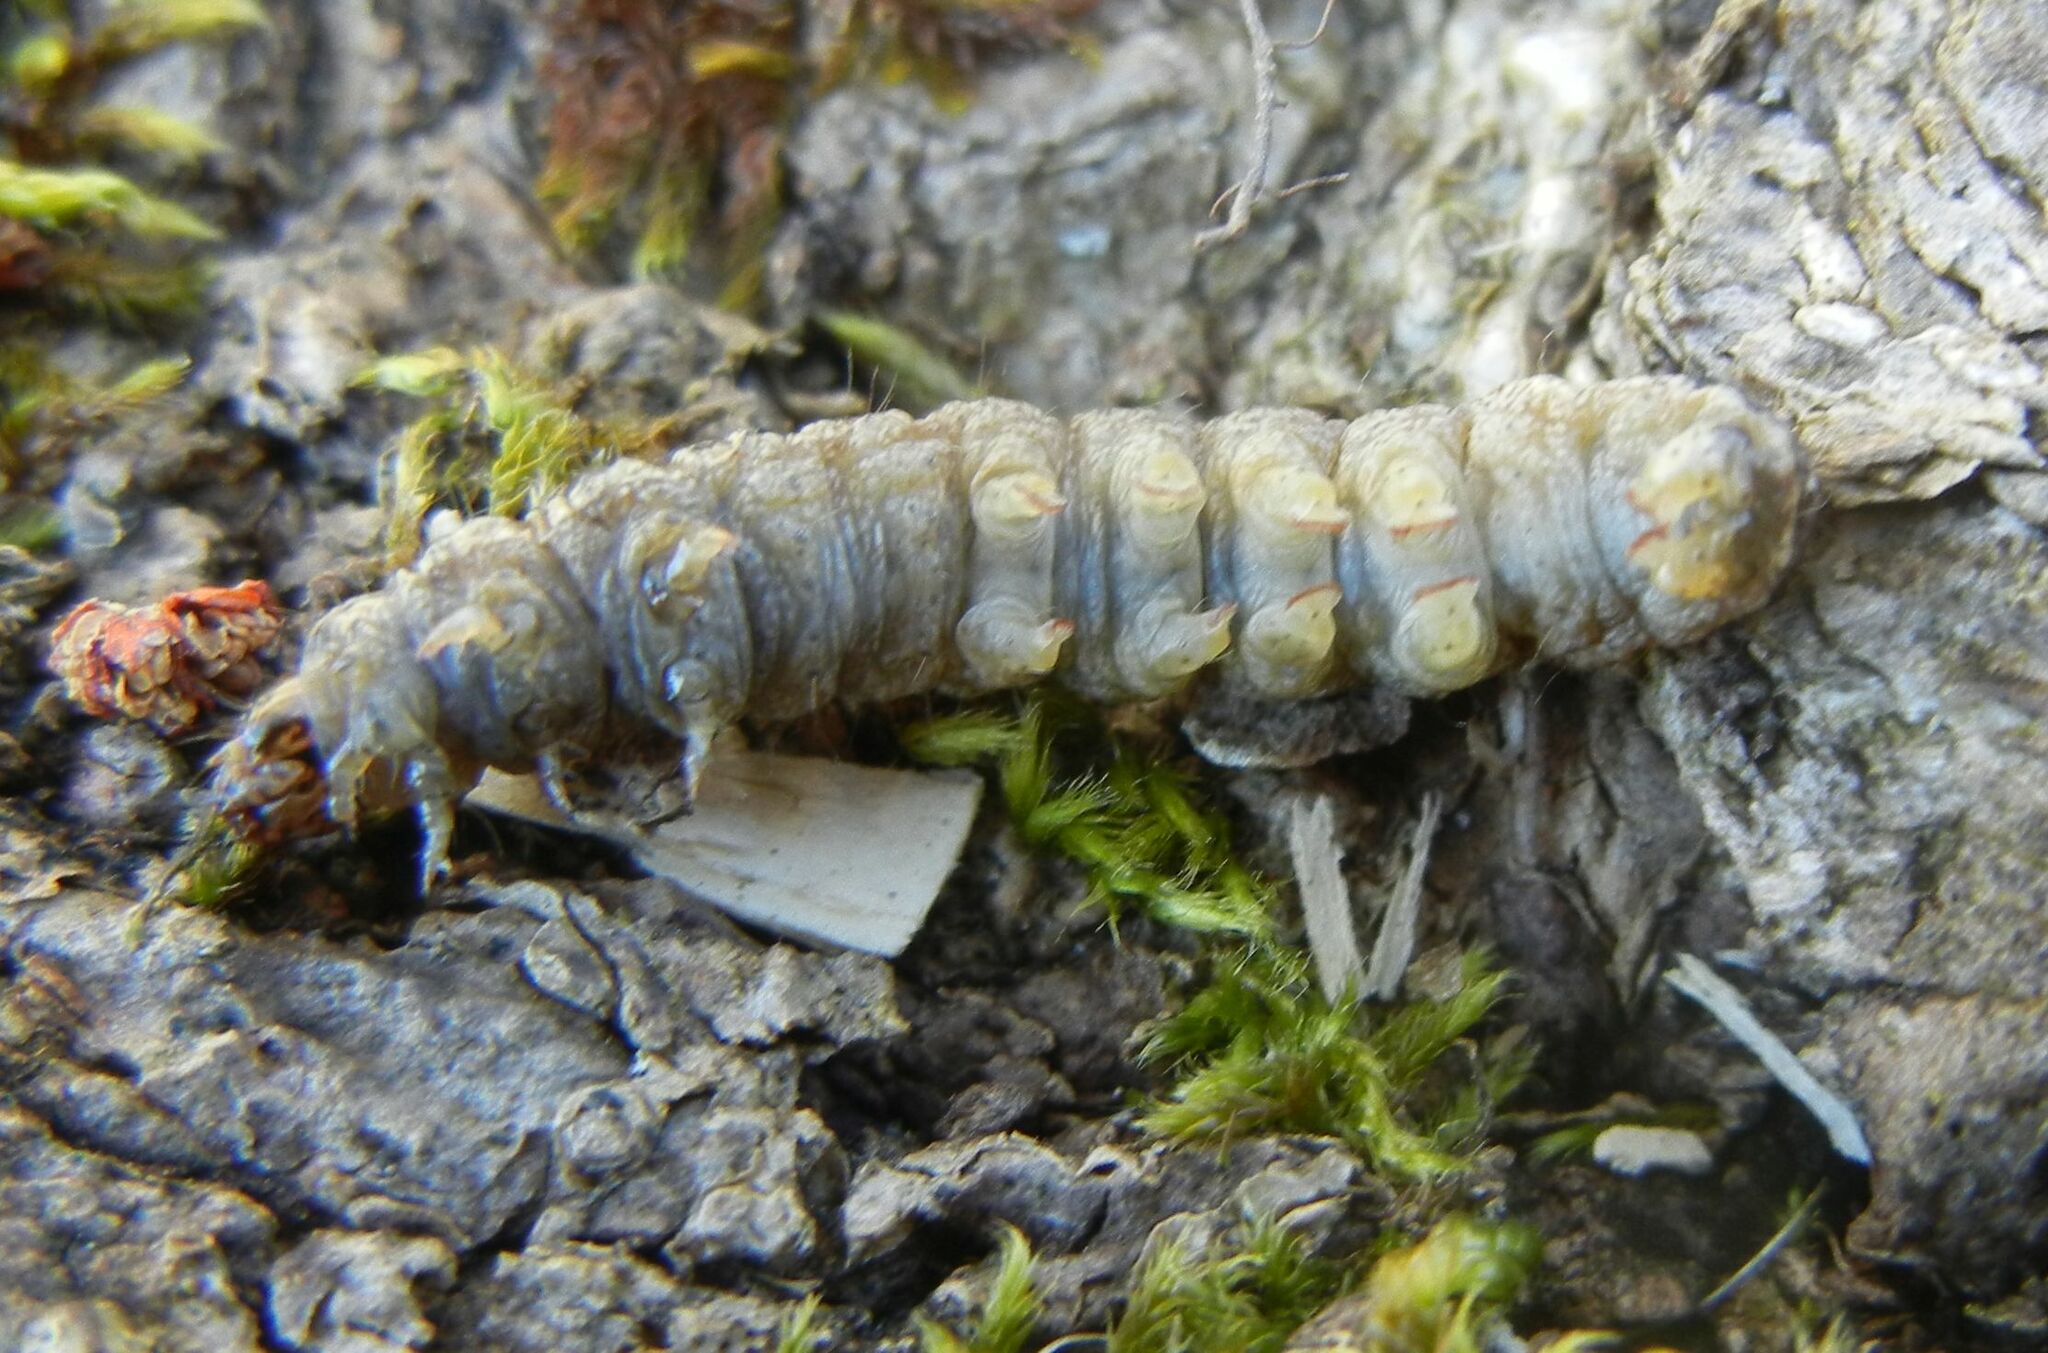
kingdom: Animalia
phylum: Arthropoda
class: Insecta
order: Lepidoptera
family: Noctuidae
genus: Atethmia
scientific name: Atethmia centrago
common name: Centre-barred sallow
